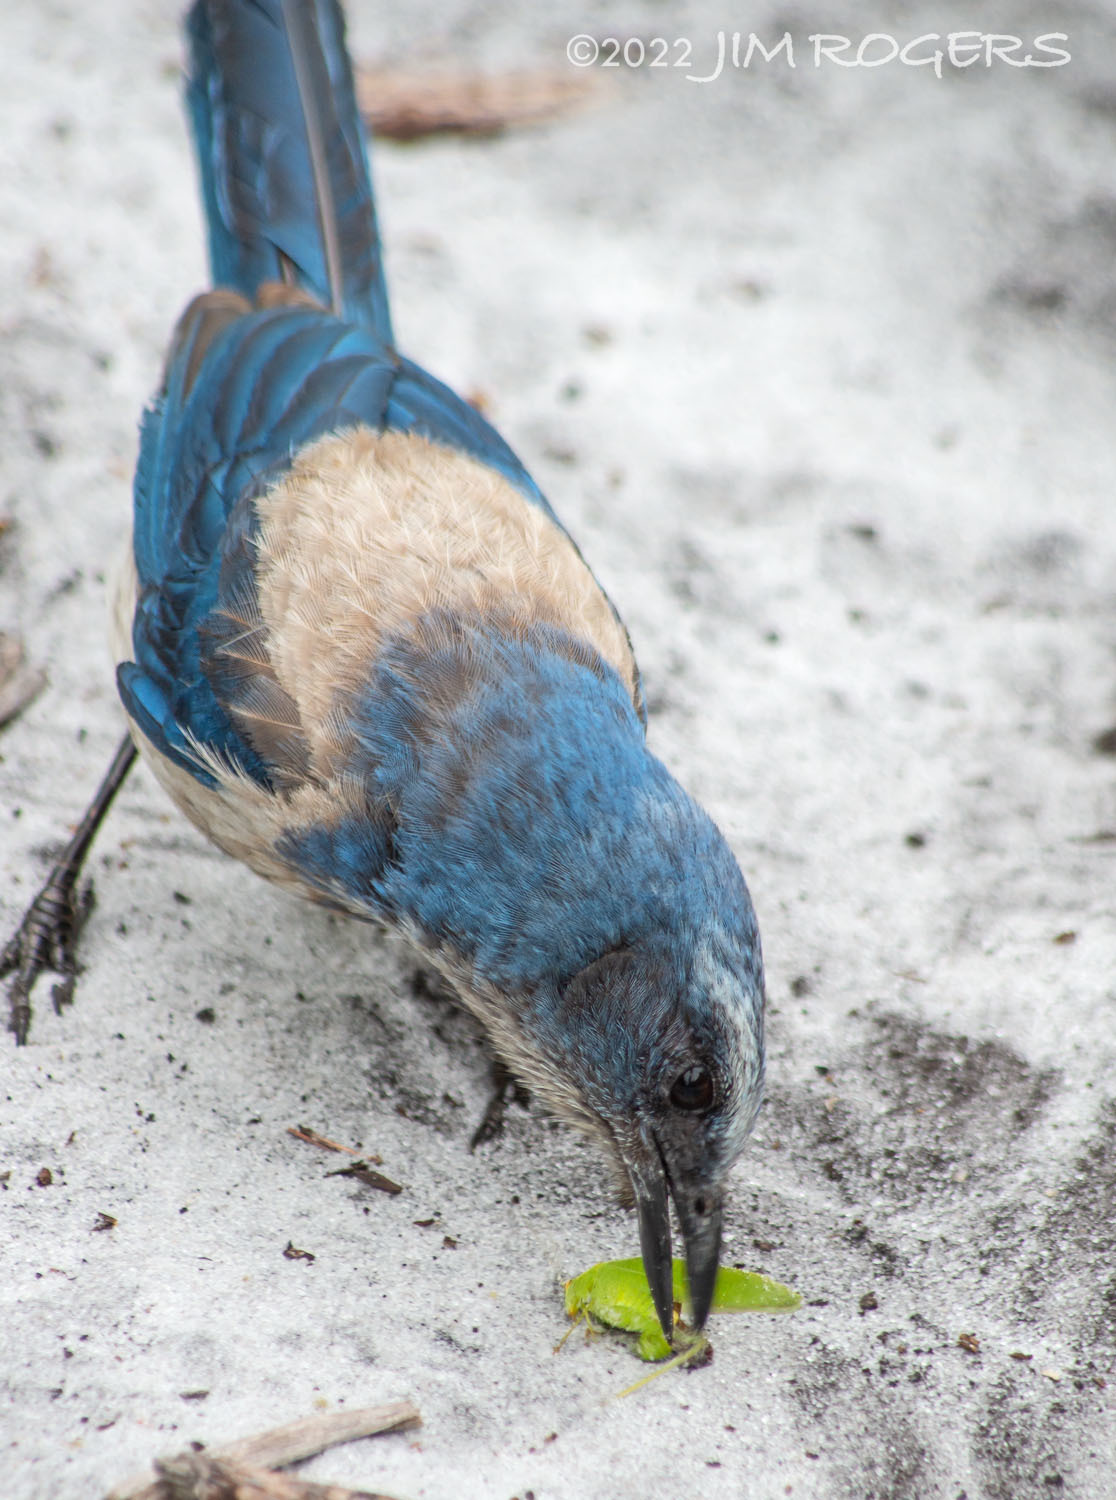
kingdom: Animalia
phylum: Chordata
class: Aves
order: Passeriformes
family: Corvidae
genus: Aphelocoma
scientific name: Aphelocoma coerulescens
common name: Florida scrub jay
